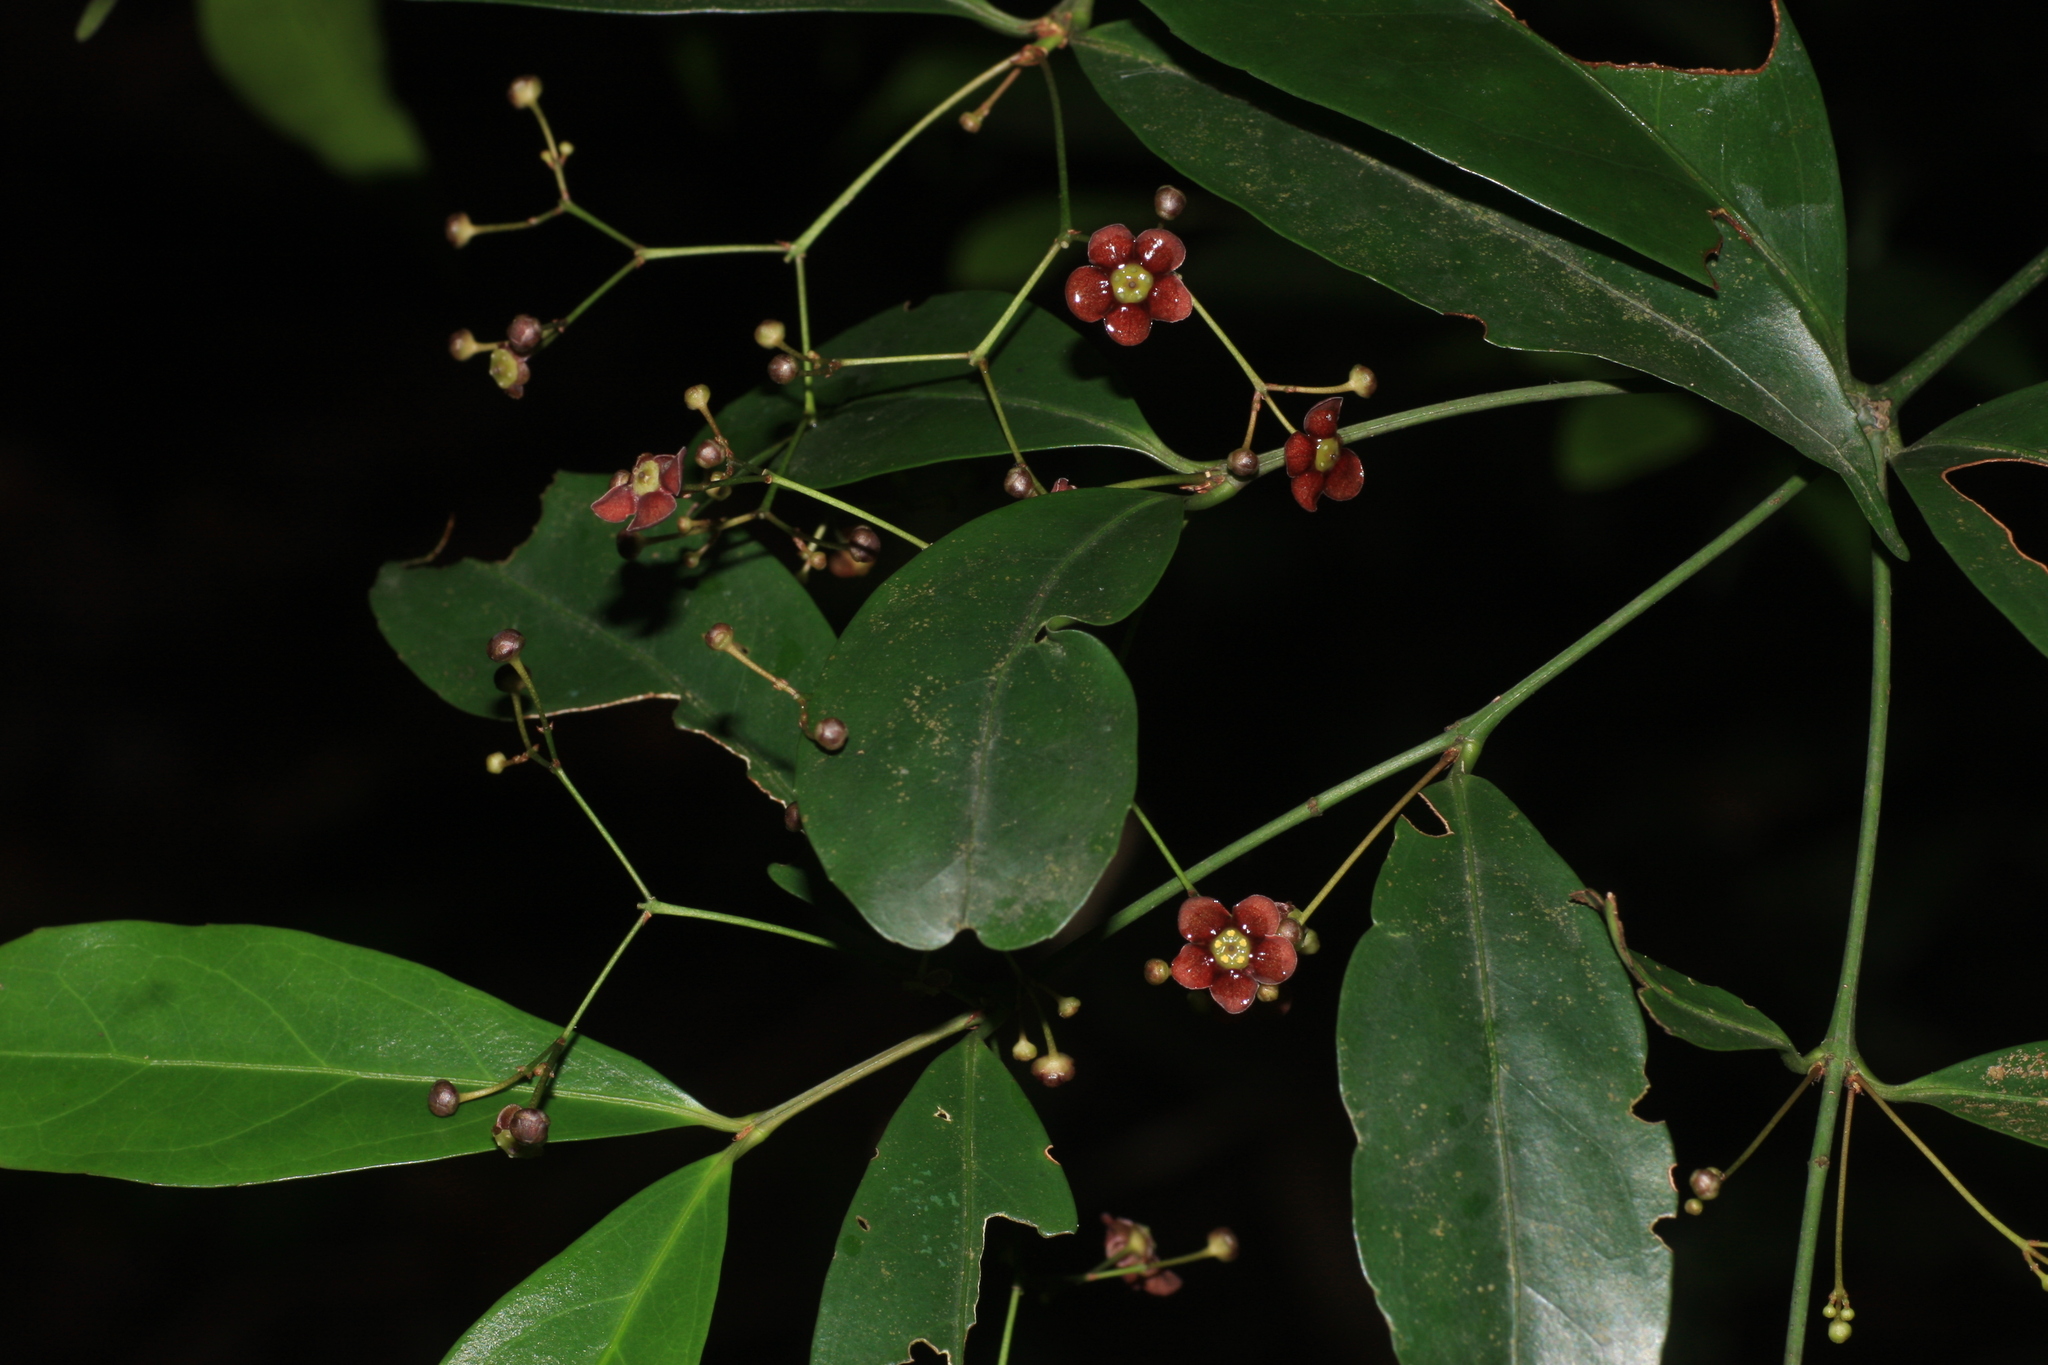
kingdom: Plantae
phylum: Tracheophyta
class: Magnoliopsida
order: Celastrales
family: Celastraceae
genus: Euonymus
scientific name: Euonymus crenulatus
